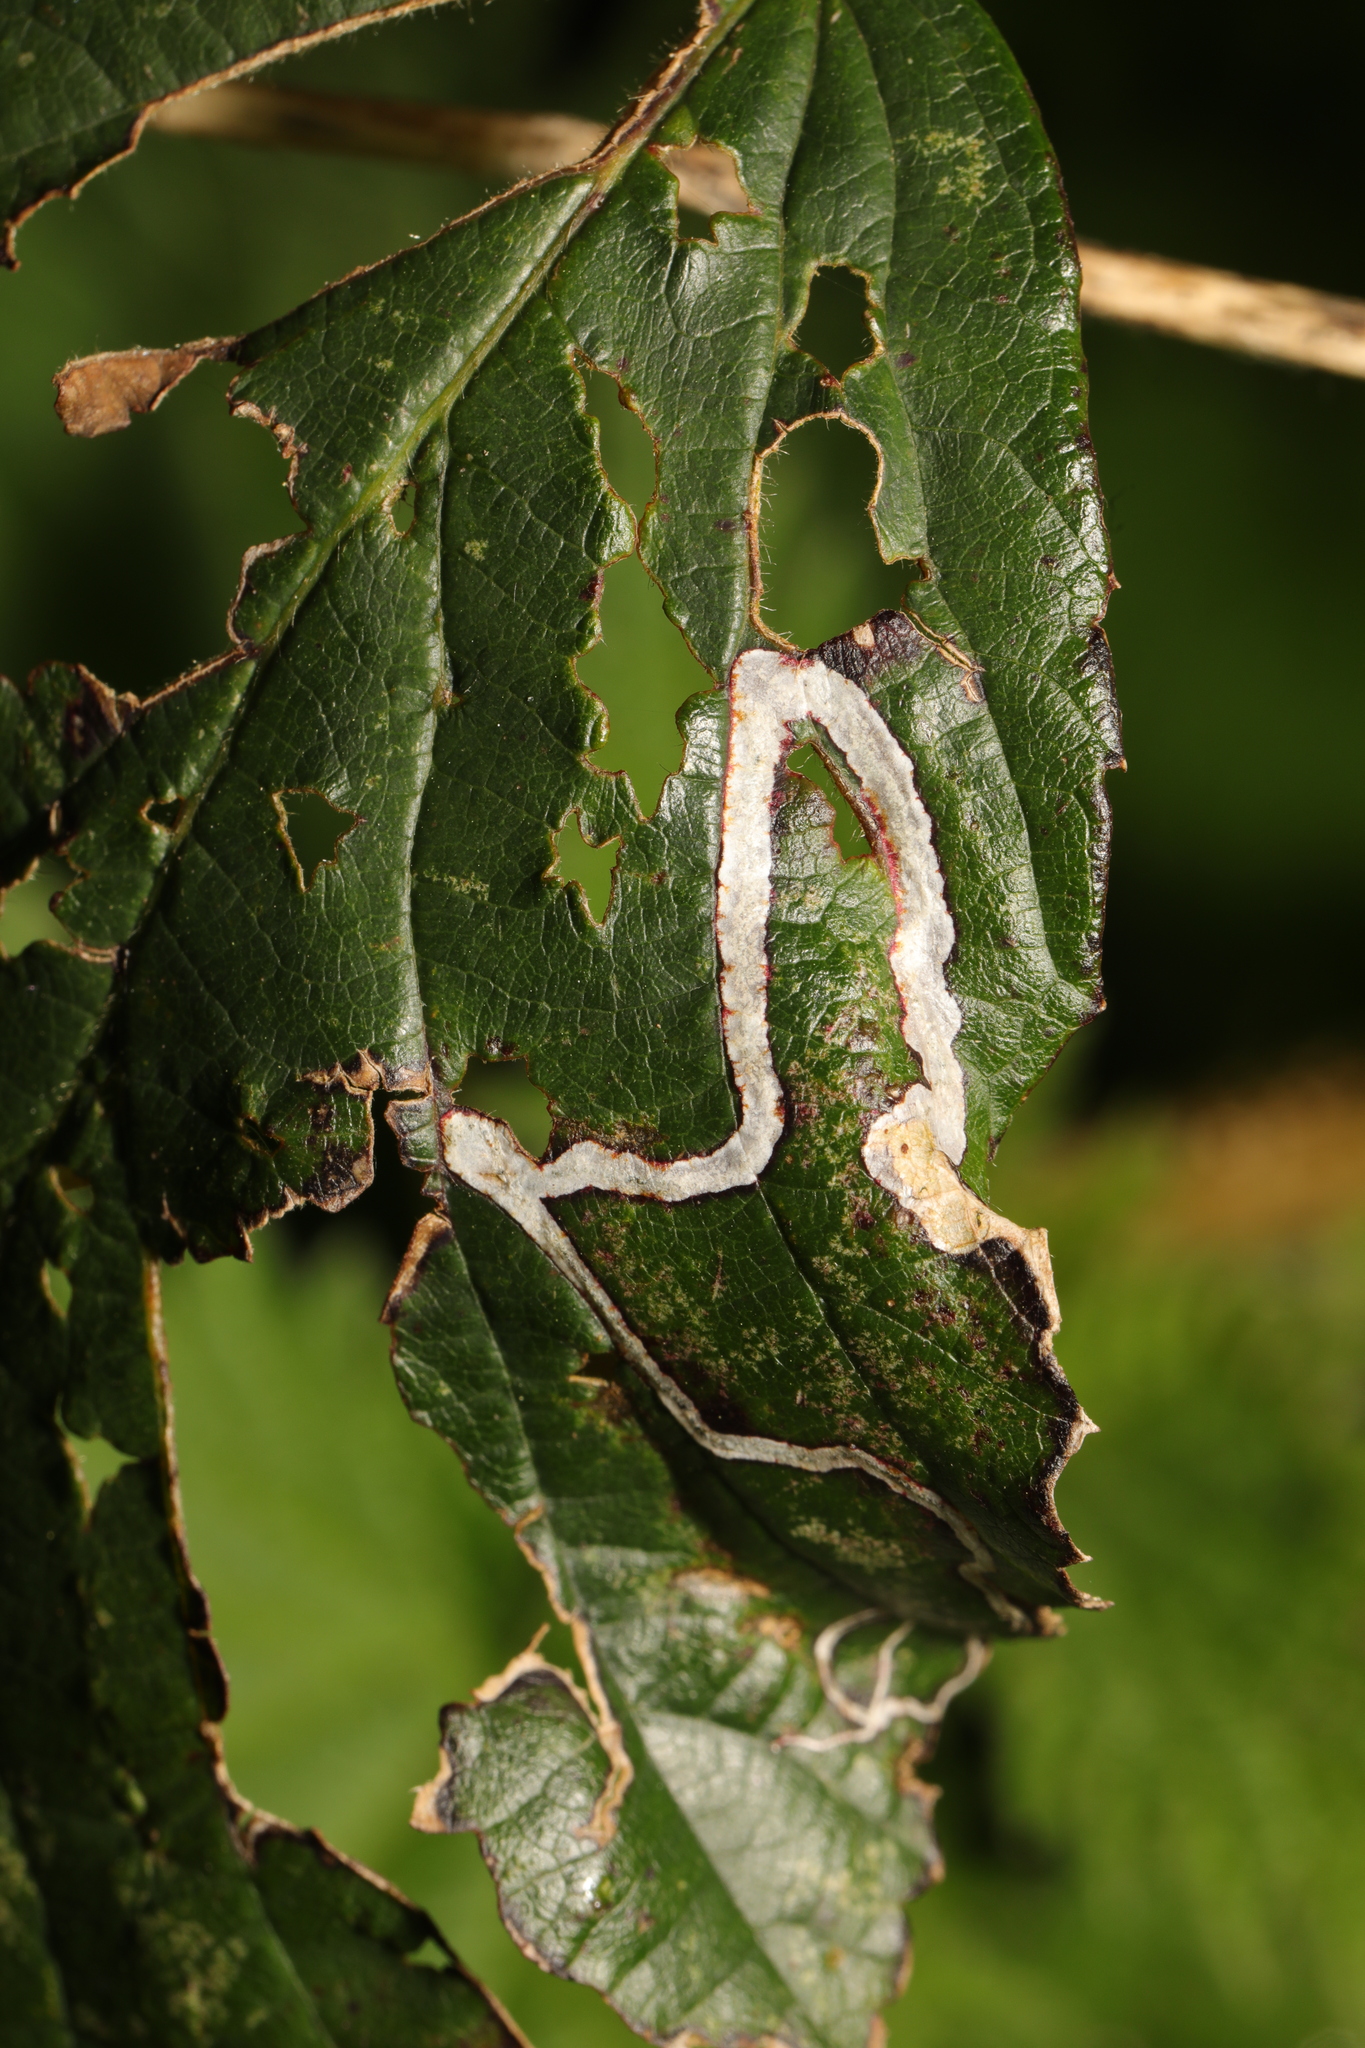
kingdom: Animalia
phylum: Arthropoda
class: Insecta
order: Lepidoptera
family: Nepticulidae
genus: Stigmella
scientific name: Stigmella aurella
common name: Golden pigmy
